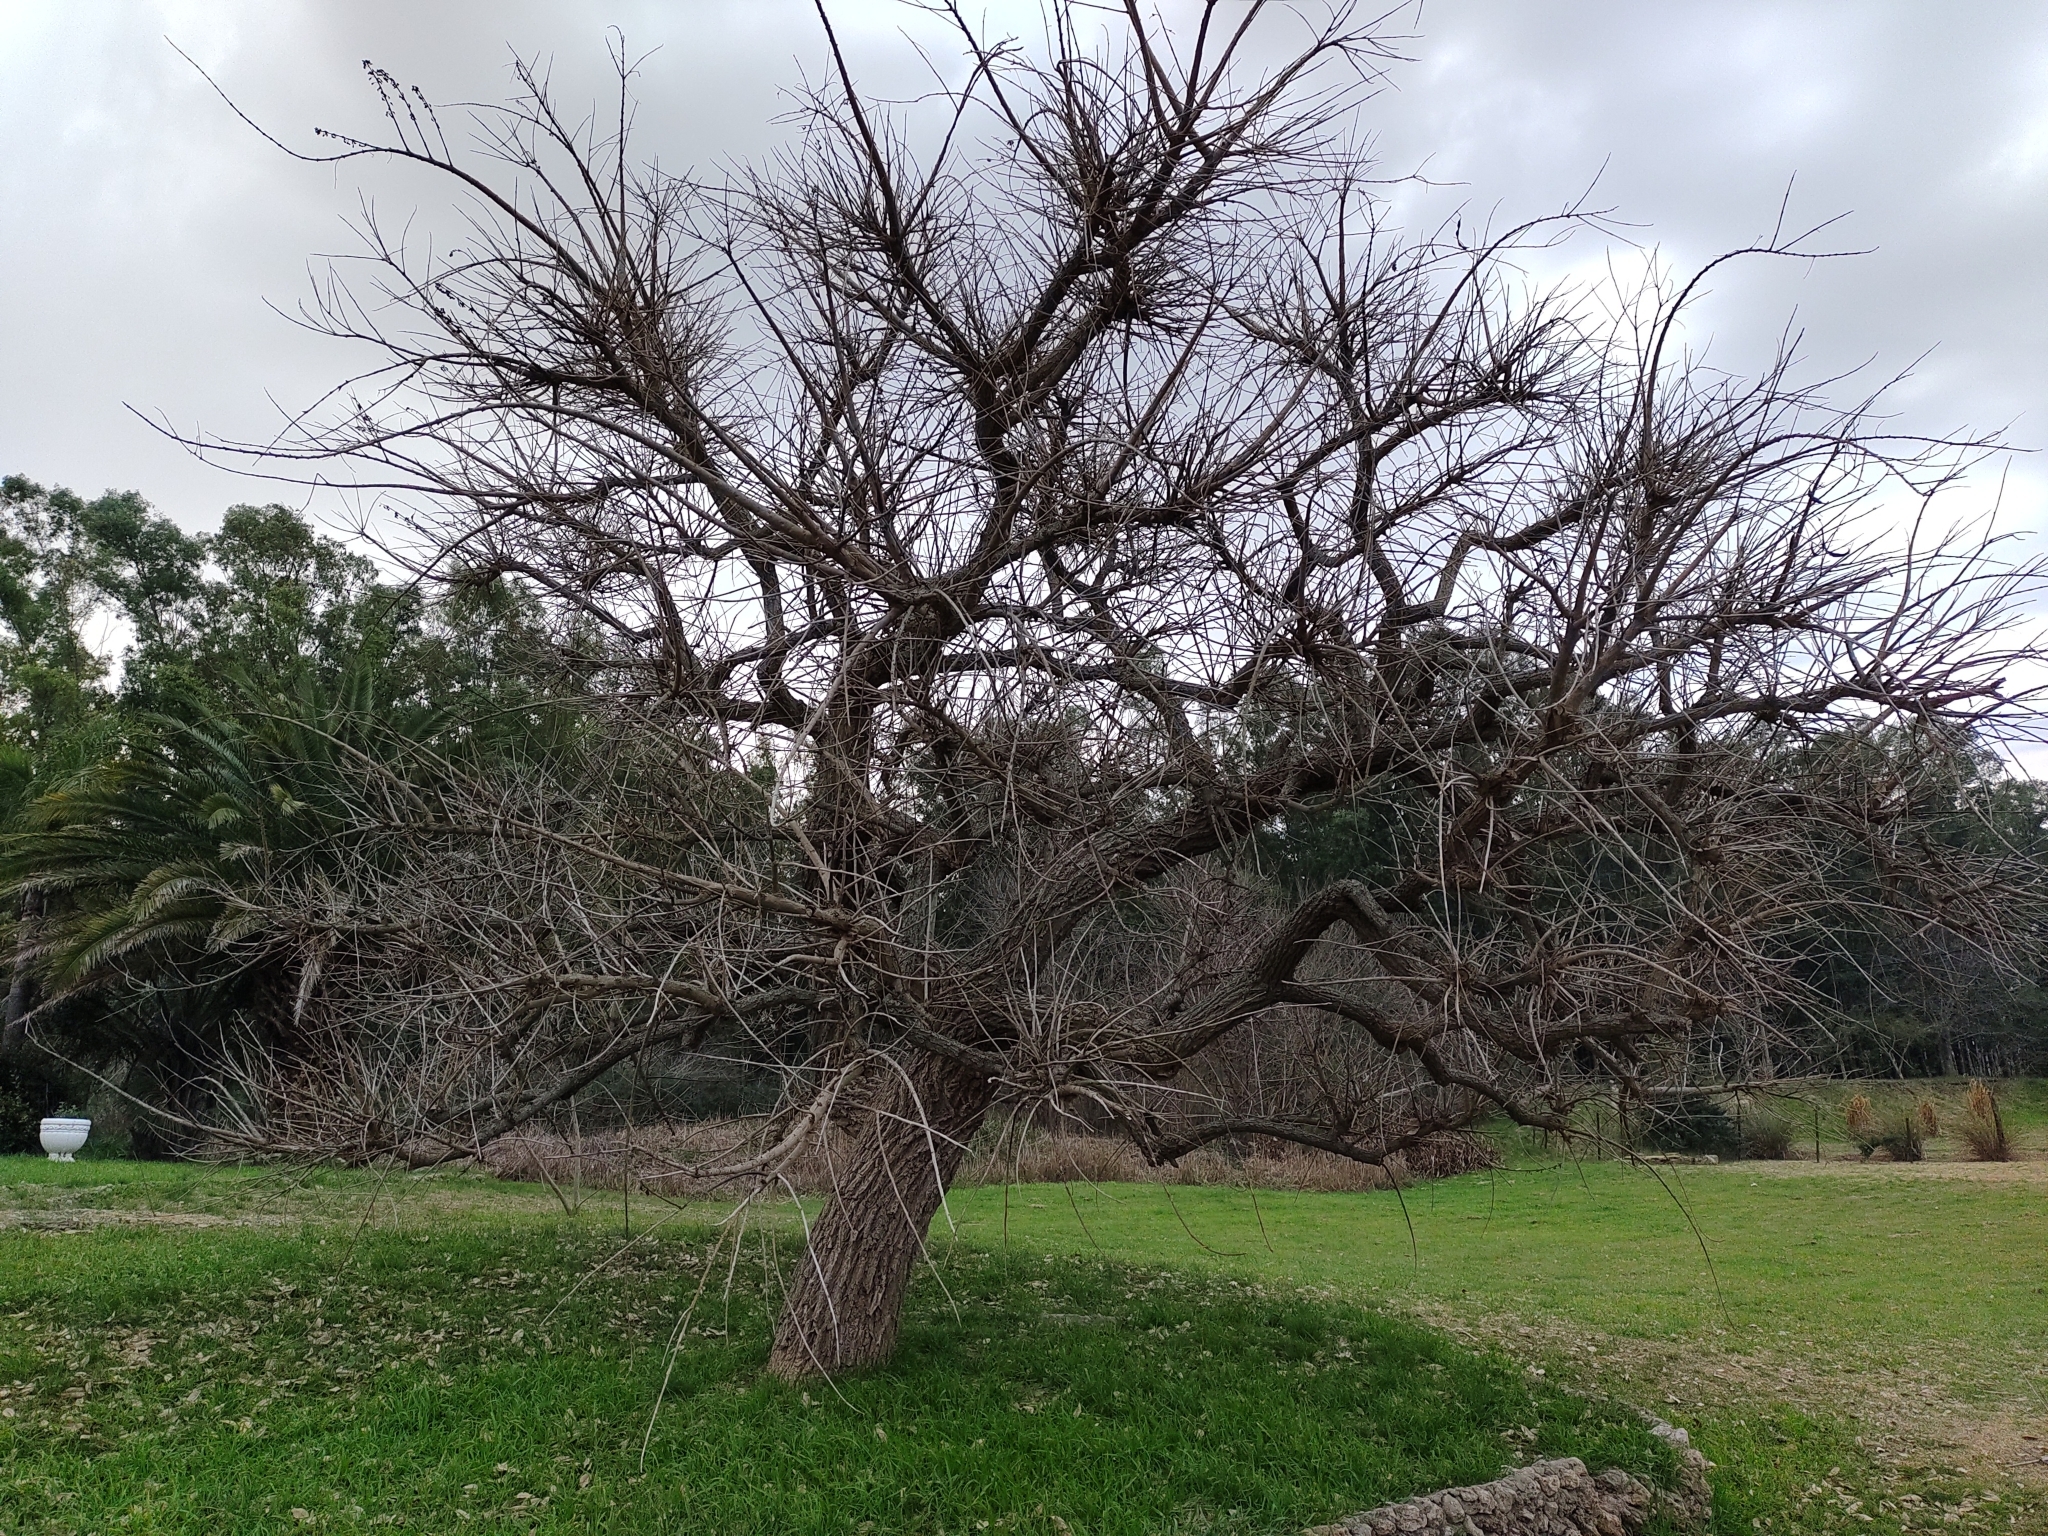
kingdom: Plantae
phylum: Tracheophyta
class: Magnoliopsida
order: Fabales
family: Fabaceae
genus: Erythrina
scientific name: Erythrina crista-galli
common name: Cockspur coral tree
